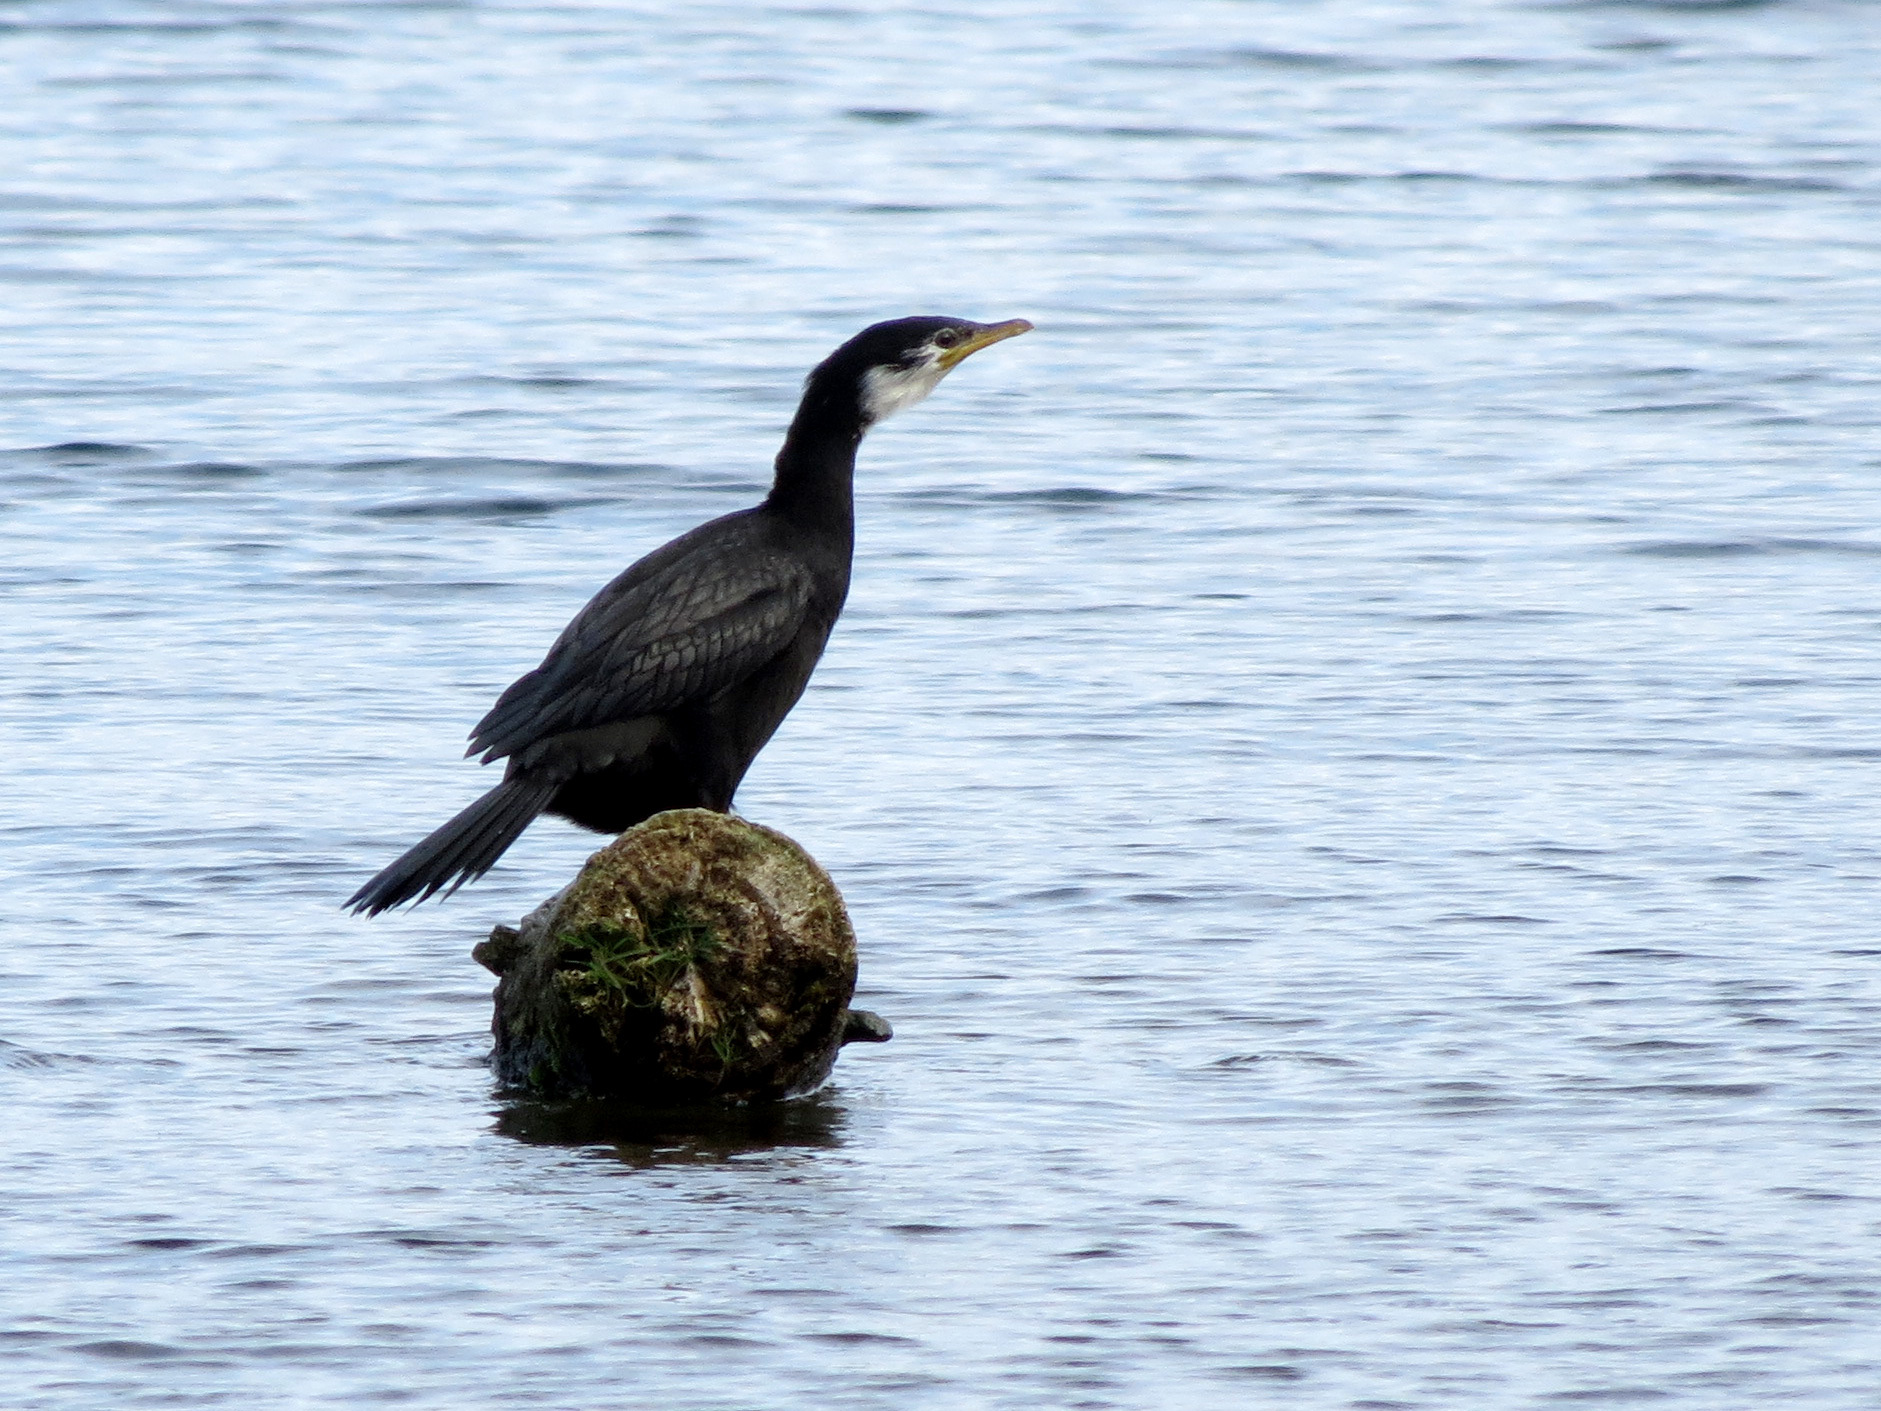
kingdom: Animalia
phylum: Chordata
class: Aves
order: Suliformes
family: Phalacrocoracidae
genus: Microcarbo
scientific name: Microcarbo melanoleucos
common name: Little pied cormorant
